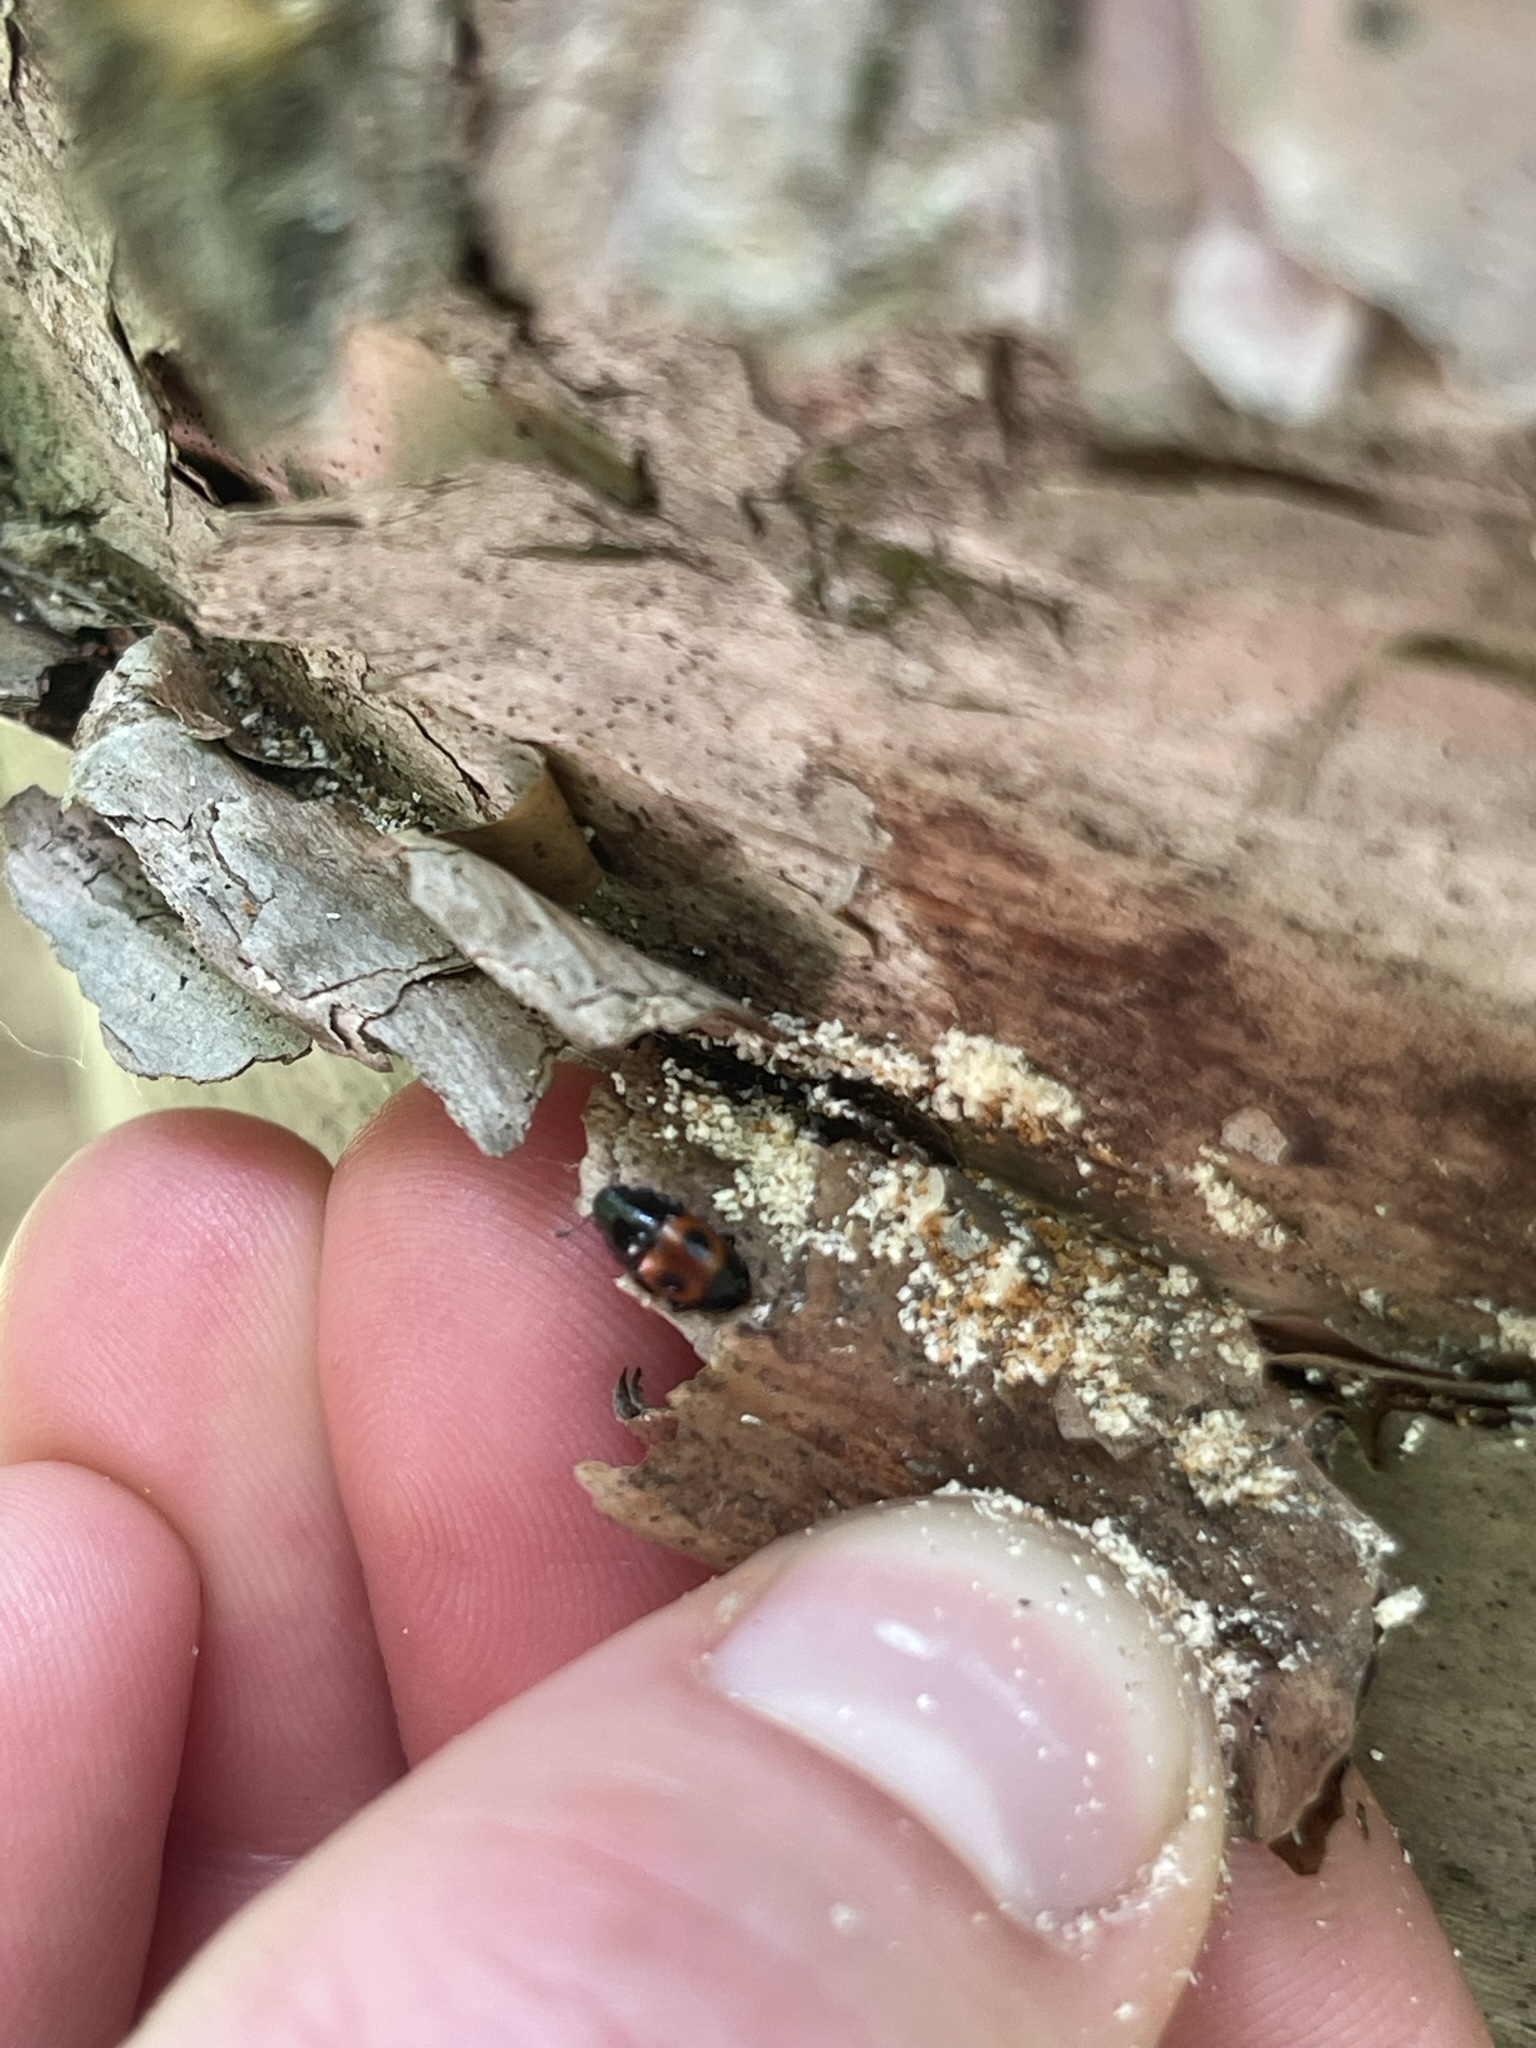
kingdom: Animalia
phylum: Arthropoda
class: Insecta
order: Coleoptera
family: Nitidulidae
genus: Glischrochilus
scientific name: Glischrochilus sanguinolentus
